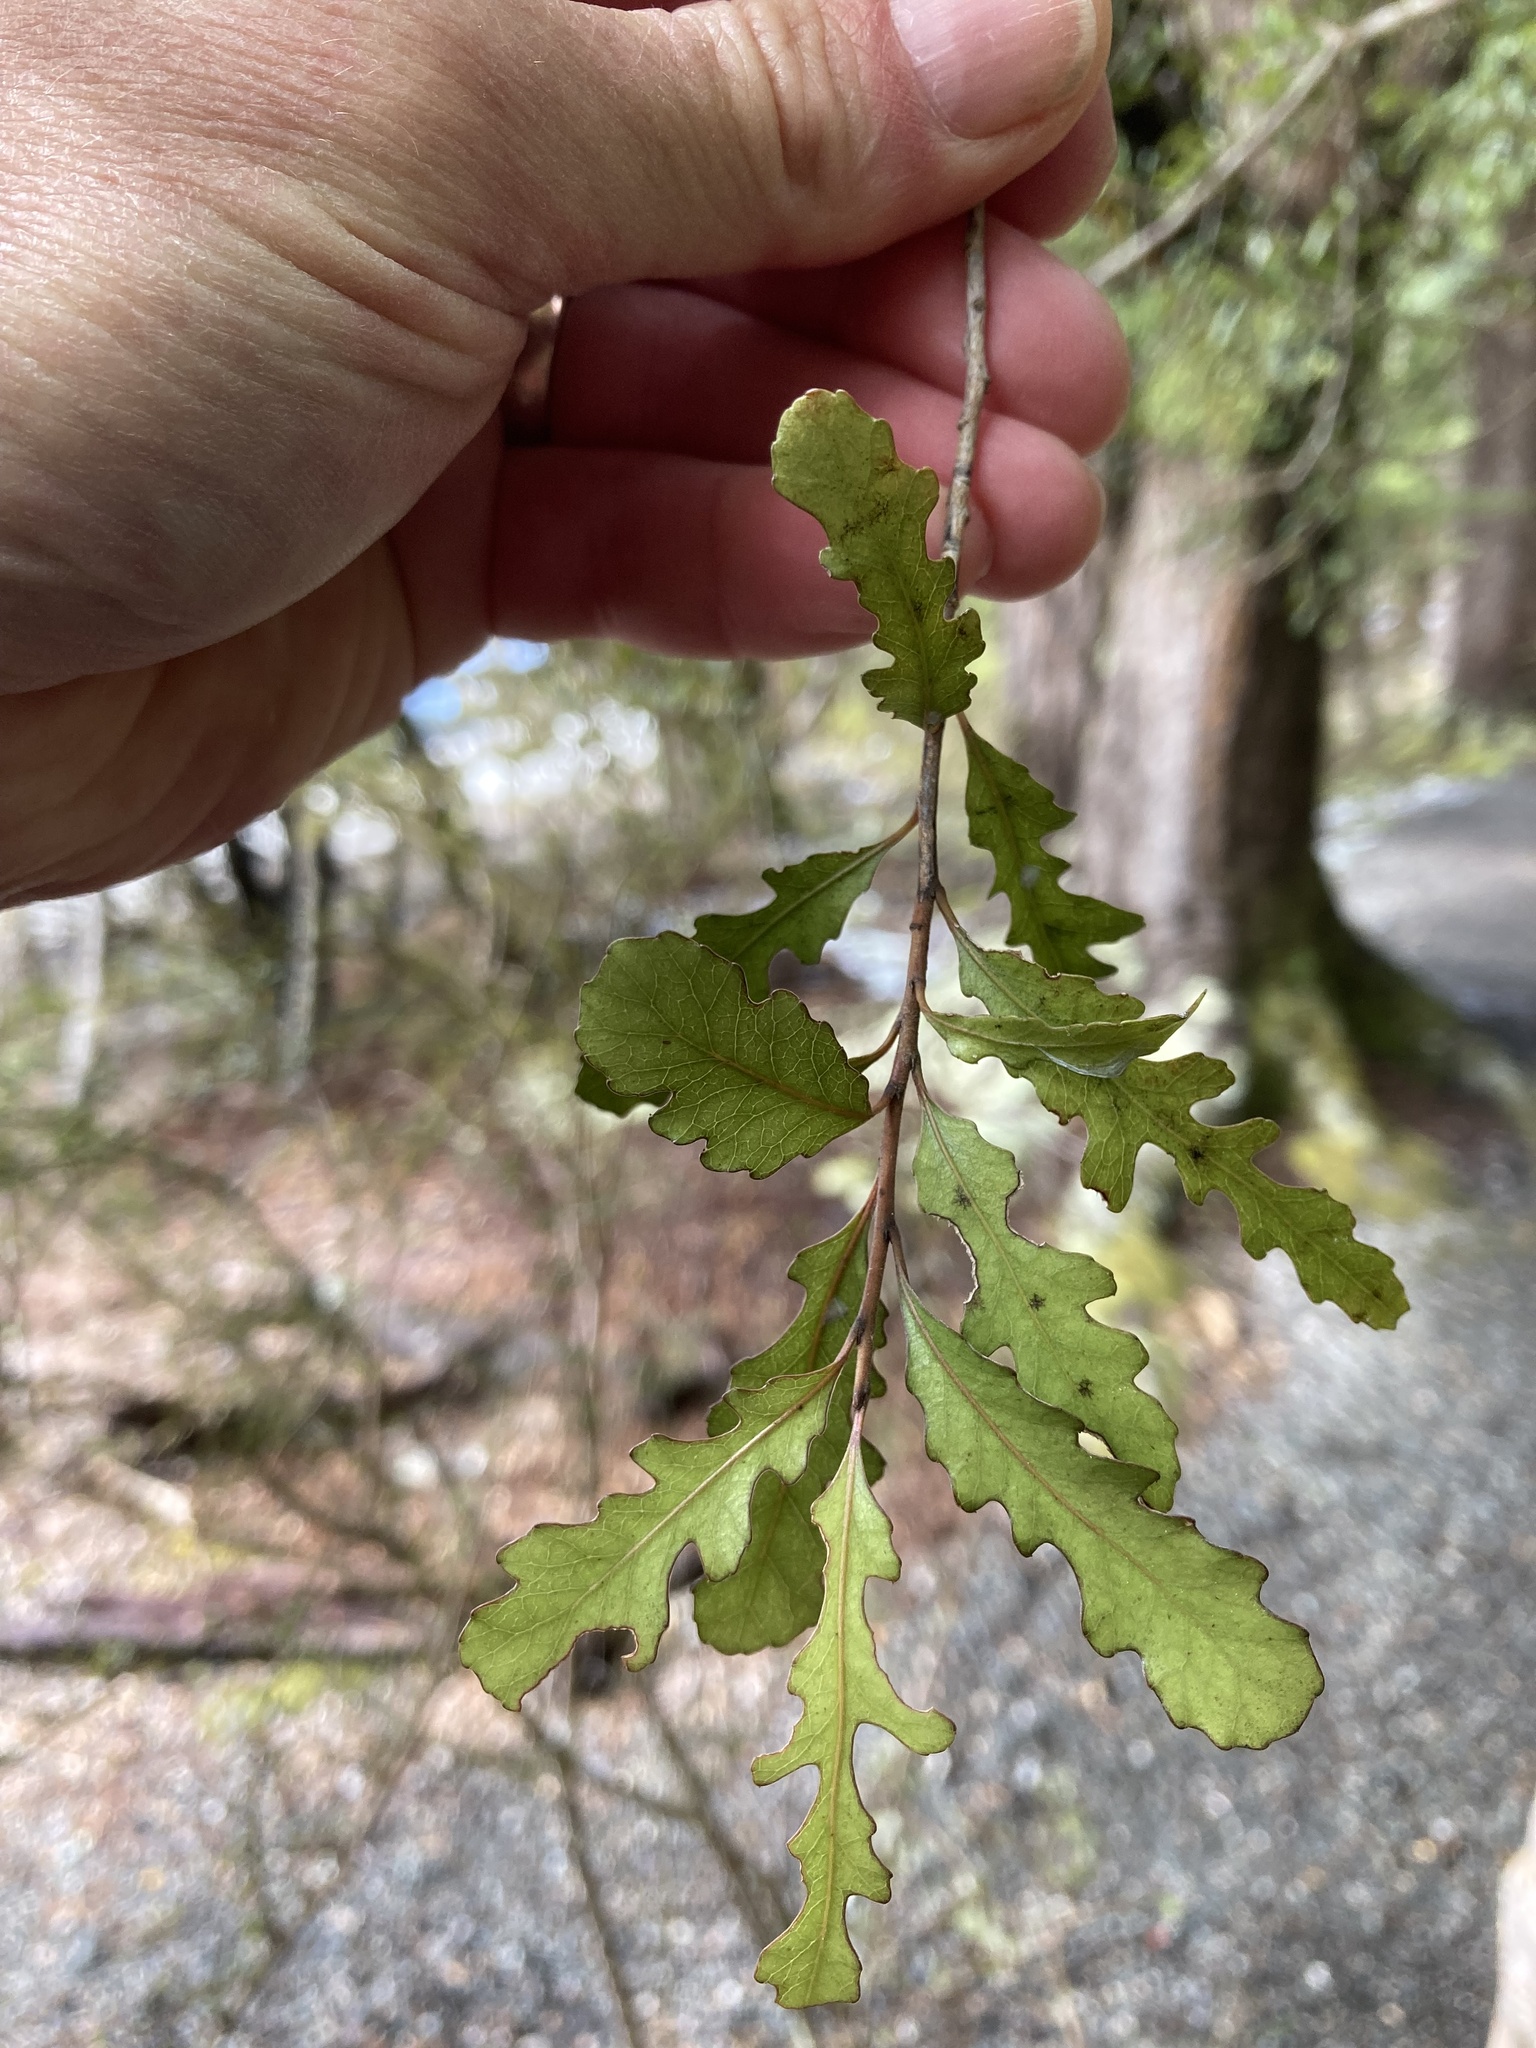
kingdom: Plantae
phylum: Tracheophyta
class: Magnoliopsida
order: Oxalidales
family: Elaeocarpaceae
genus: Elaeocarpus
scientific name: Elaeocarpus hookerianus
